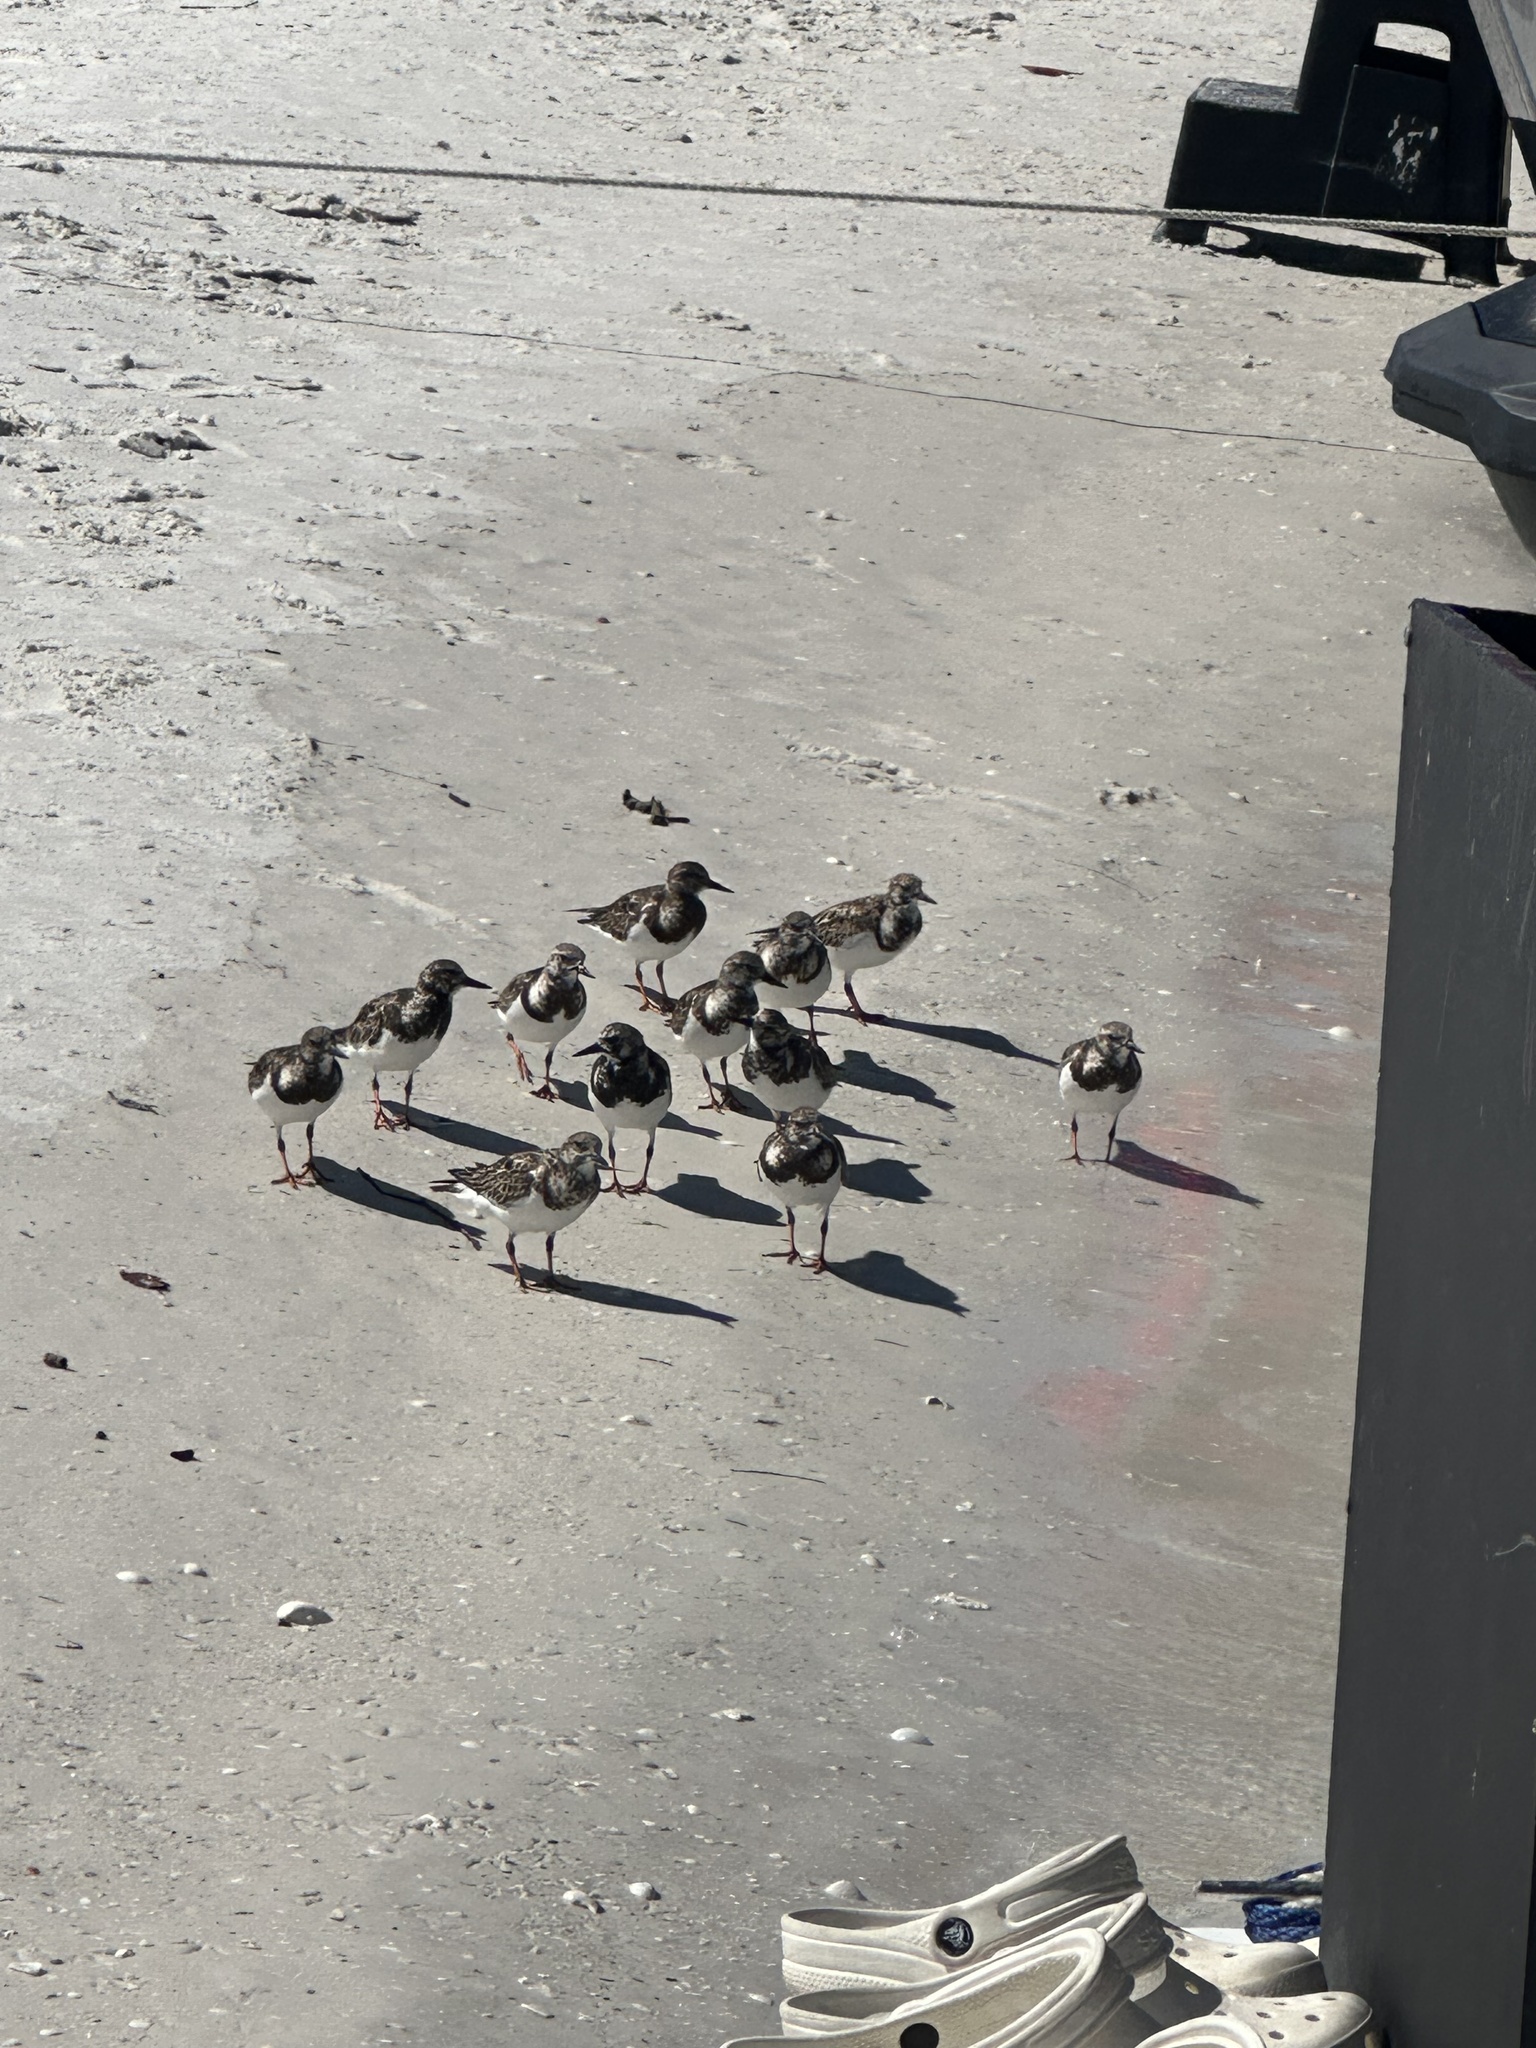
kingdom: Animalia
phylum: Chordata
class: Aves
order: Charadriiformes
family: Scolopacidae
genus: Arenaria
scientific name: Arenaria interpres
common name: Ruddy turnstone
